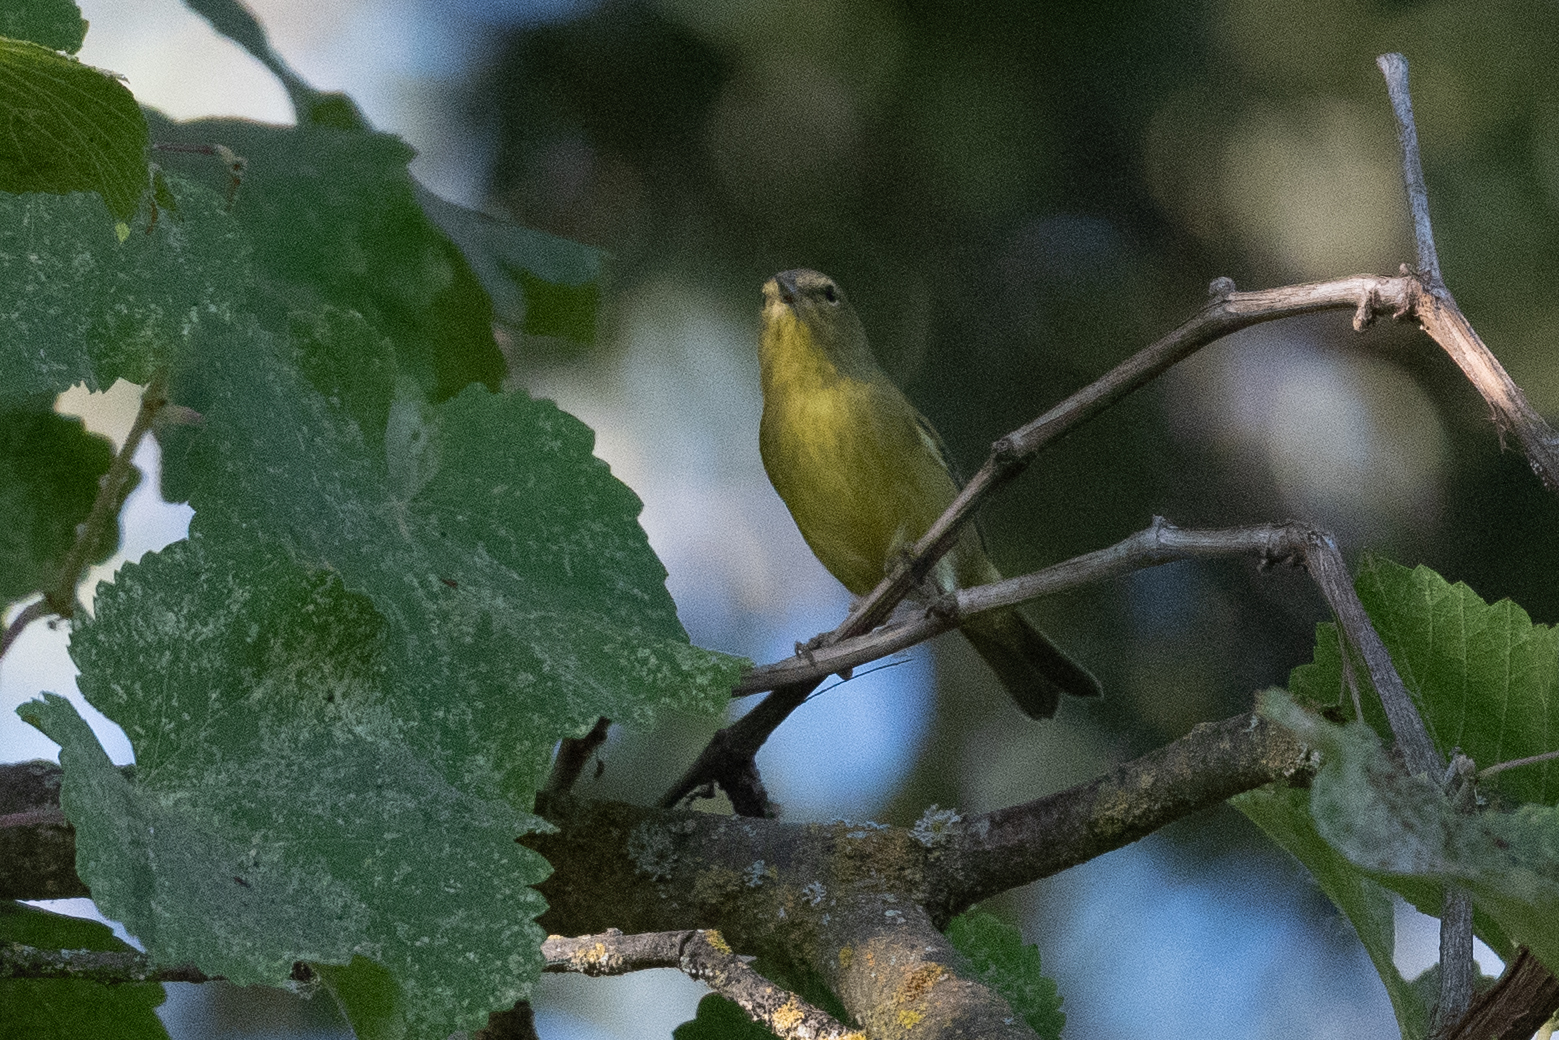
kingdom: Animalia
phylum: Chordata
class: Aves
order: Passeriformes
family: Parulidae
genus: Leiothlypis
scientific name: Leiothlypis celata
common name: Orange-crowned warbler
